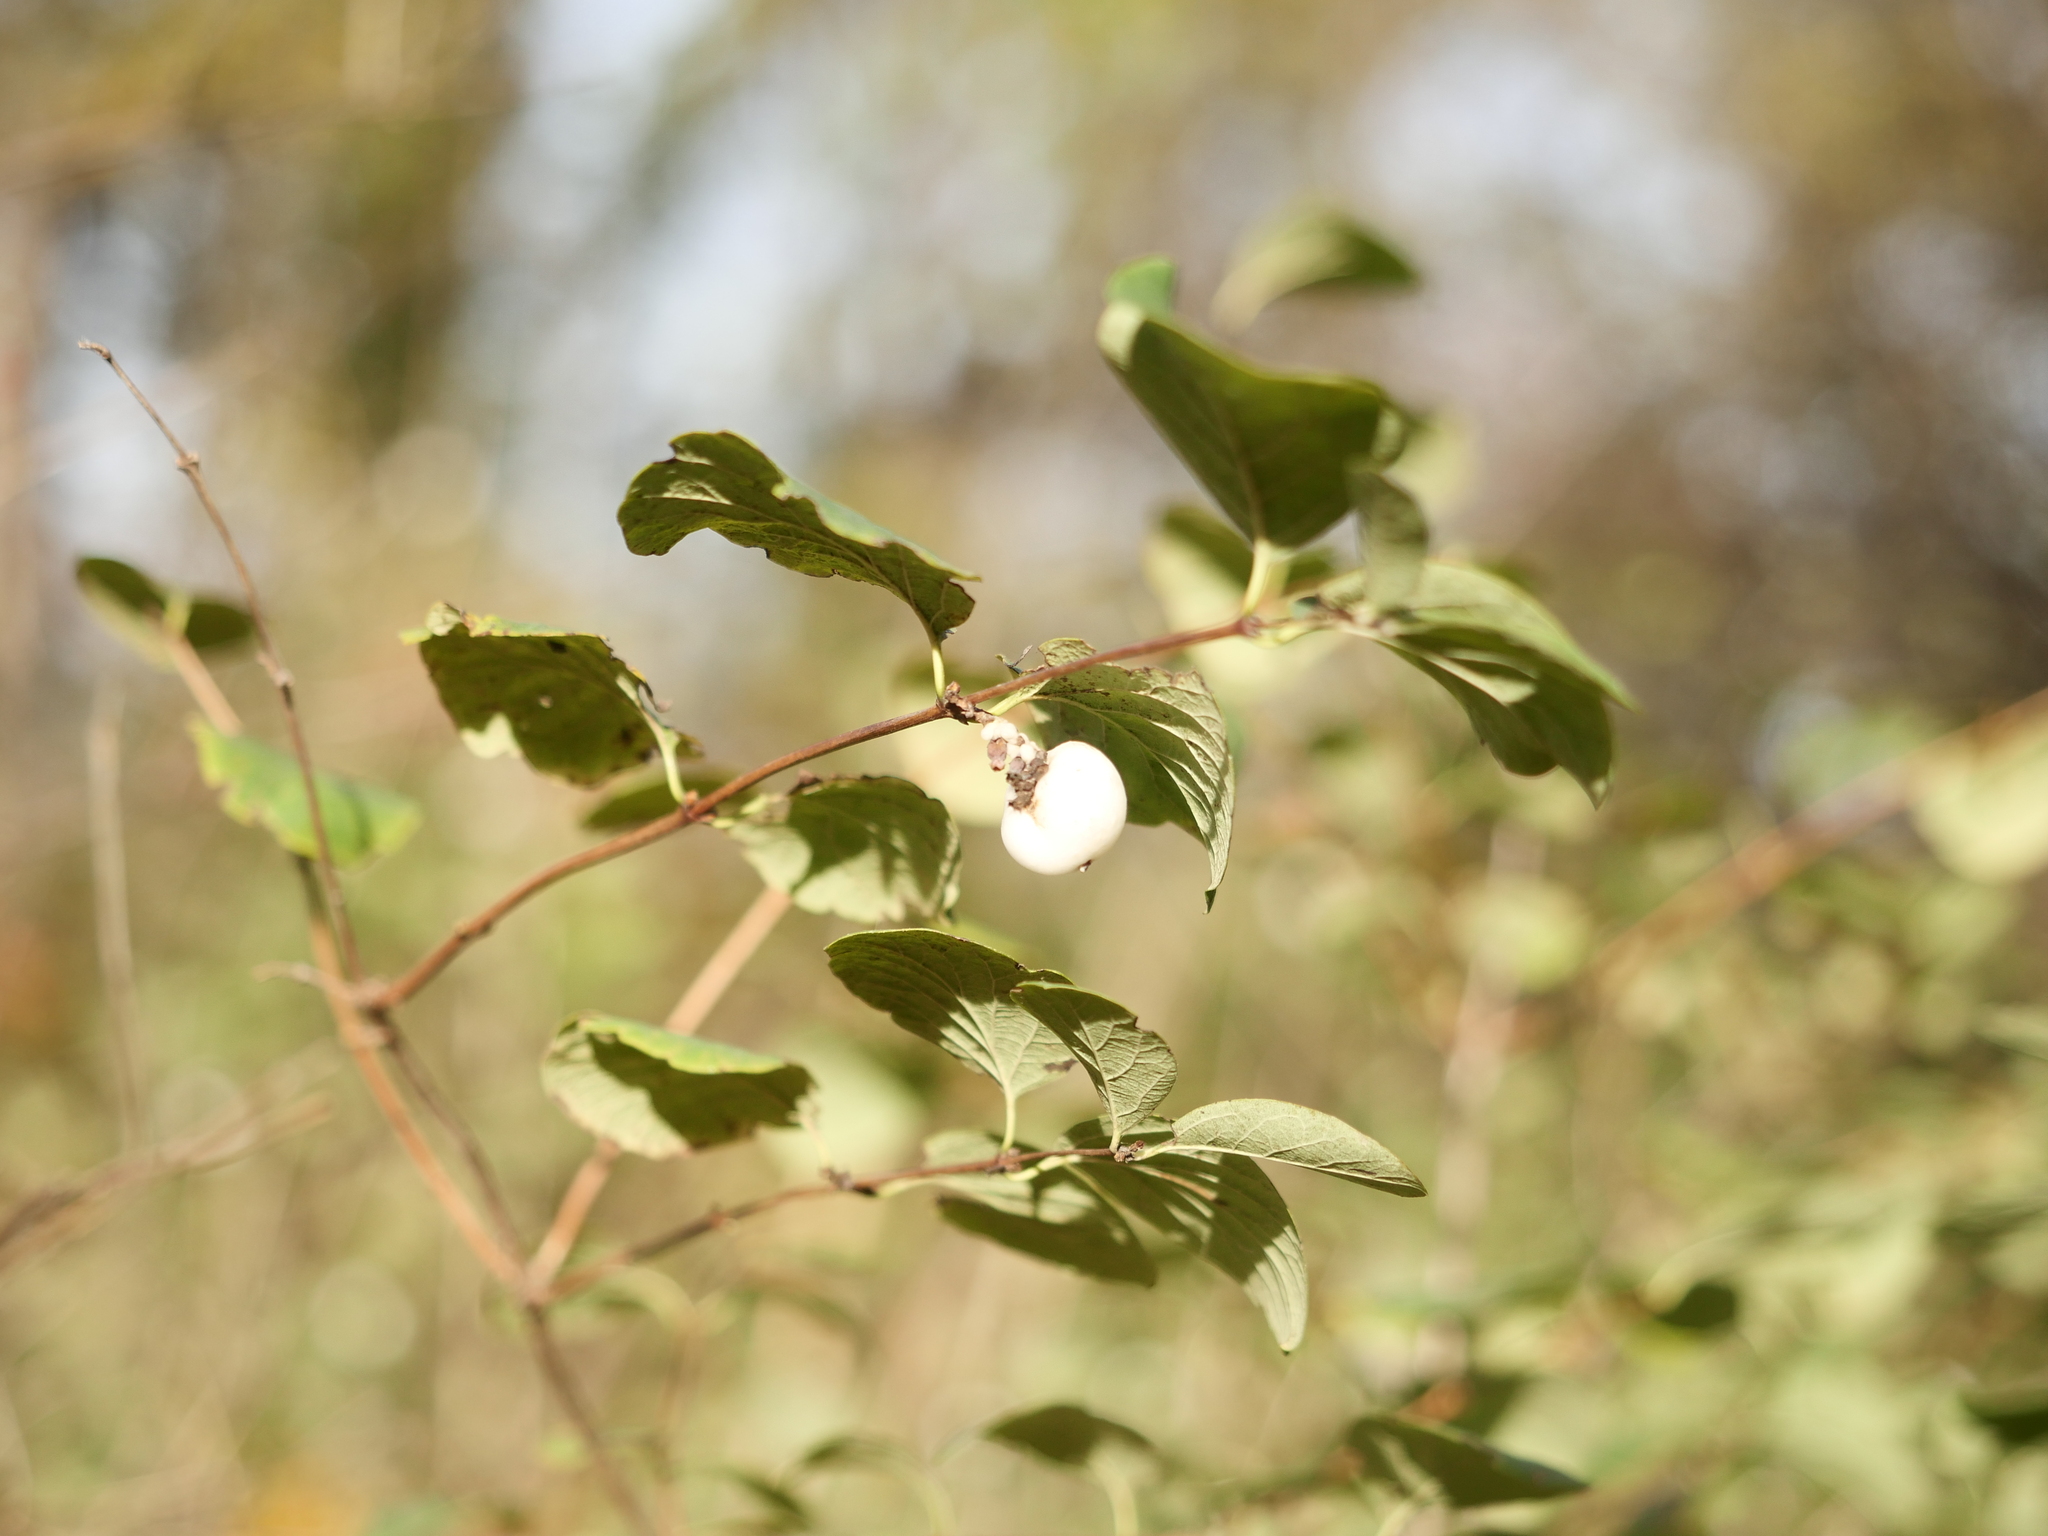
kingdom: Plantae
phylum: Tracheophyta
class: Magnoliopsida
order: Dipsacales
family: Caprifoliaceae
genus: Symphoricarpos
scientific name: Symphoricarpos albus
